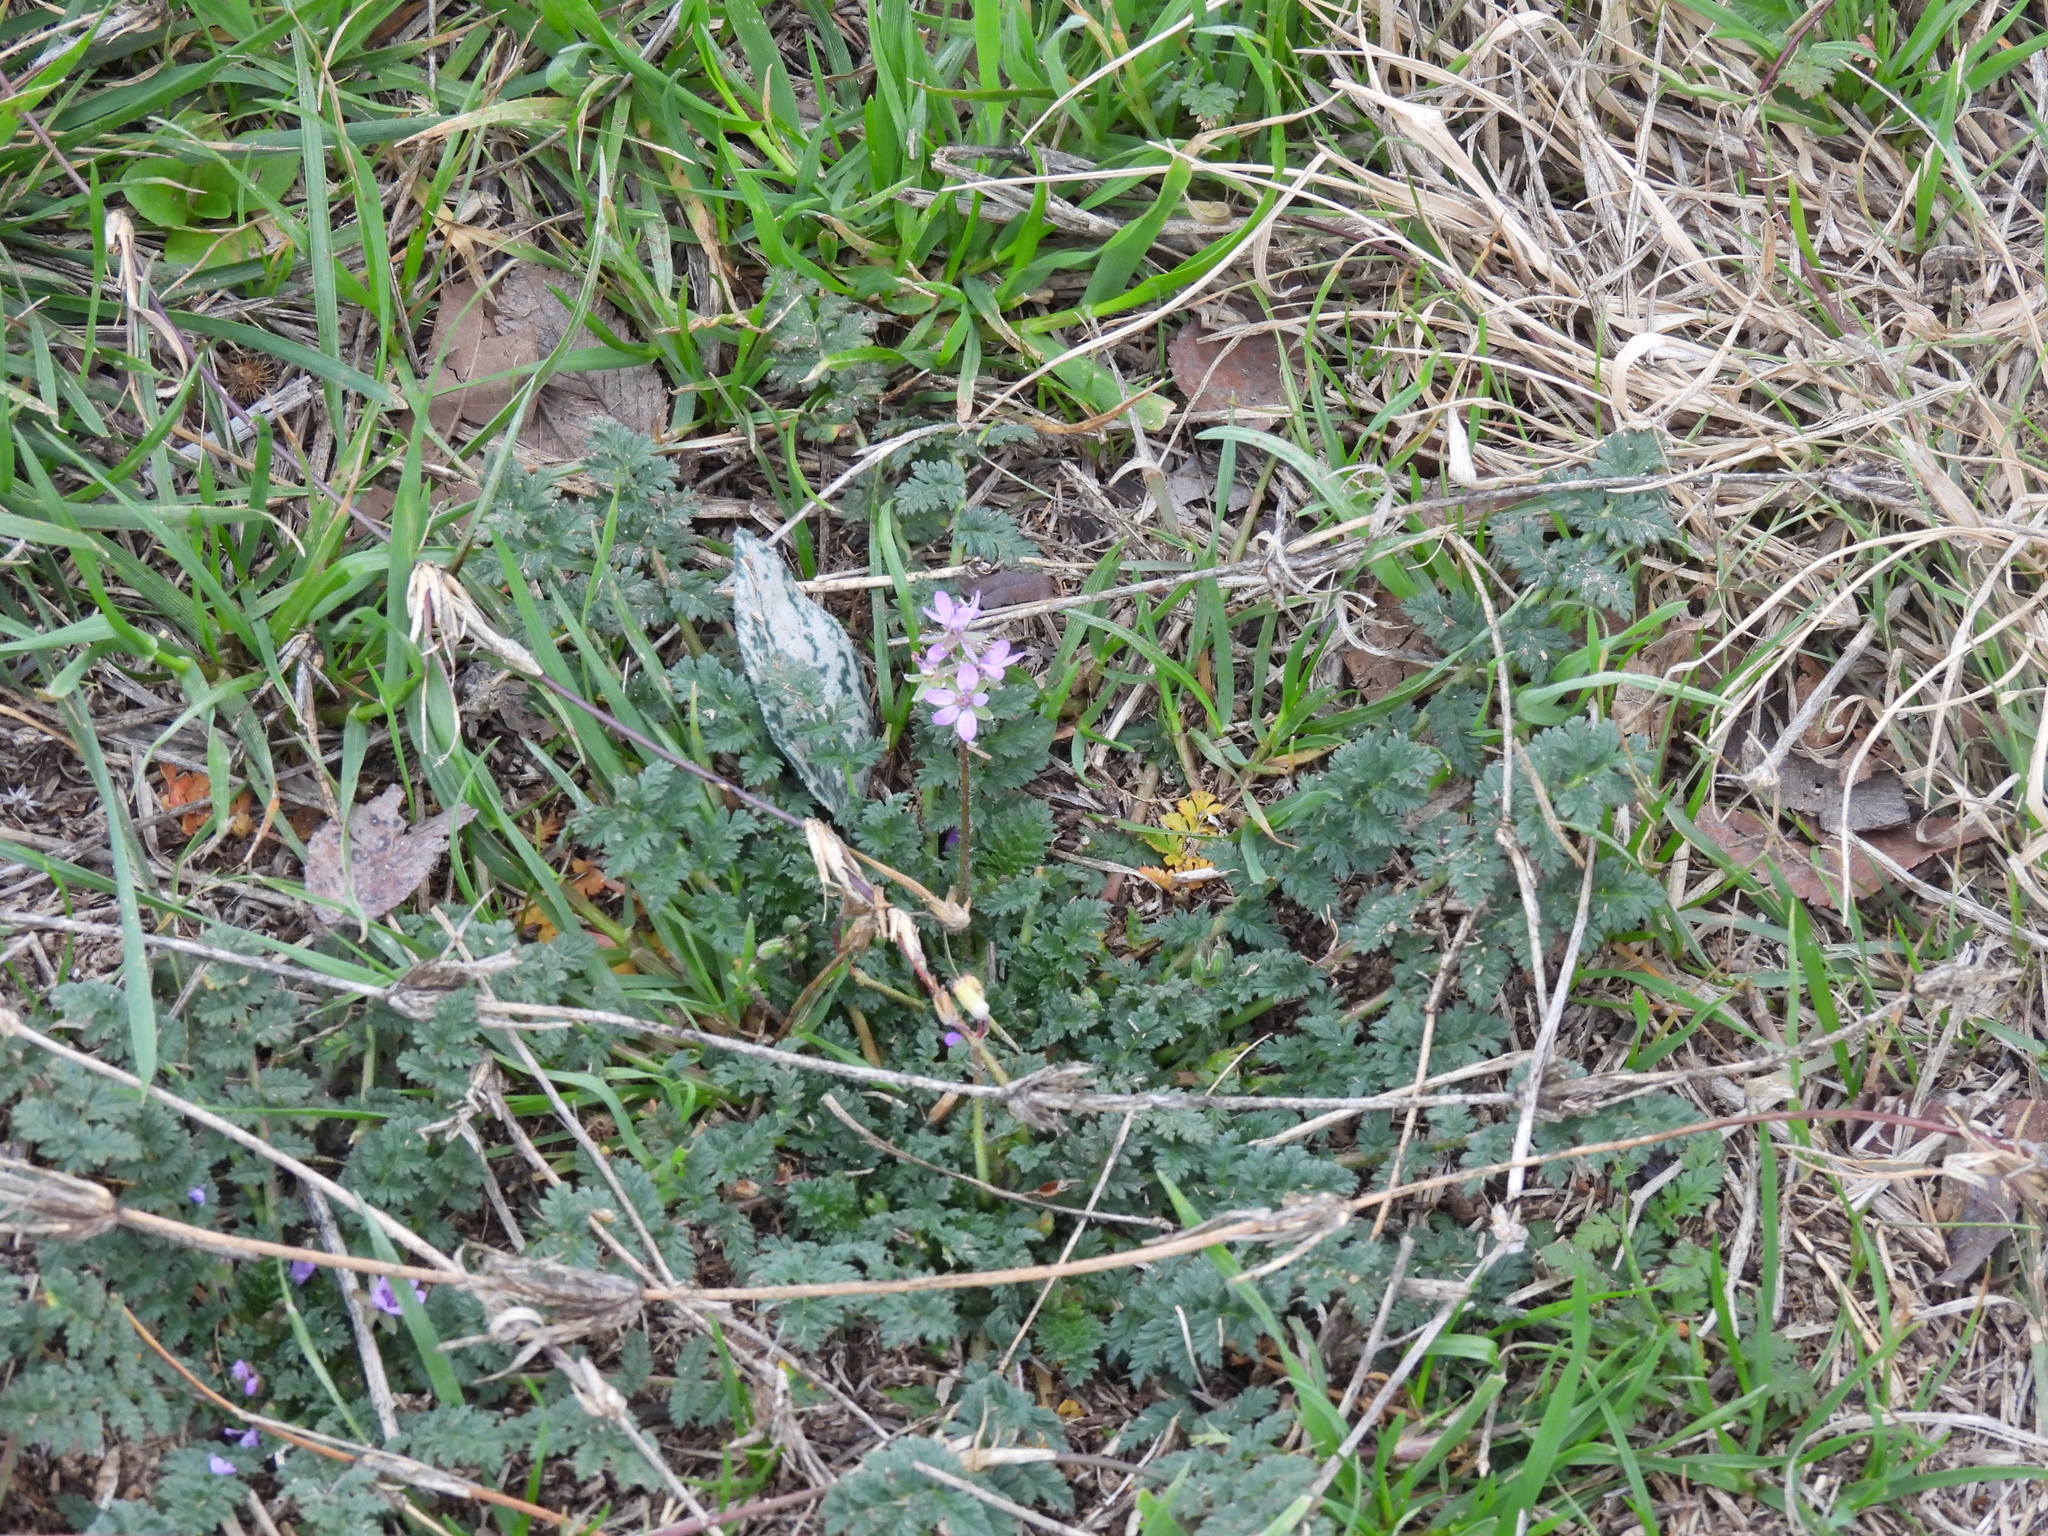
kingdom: Plantae
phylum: Tracheophyta
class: Magnoliopsida
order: Geraniales
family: Geraniaceae
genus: Erodium
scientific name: Erodium cicutarium
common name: Common stork's-bill
